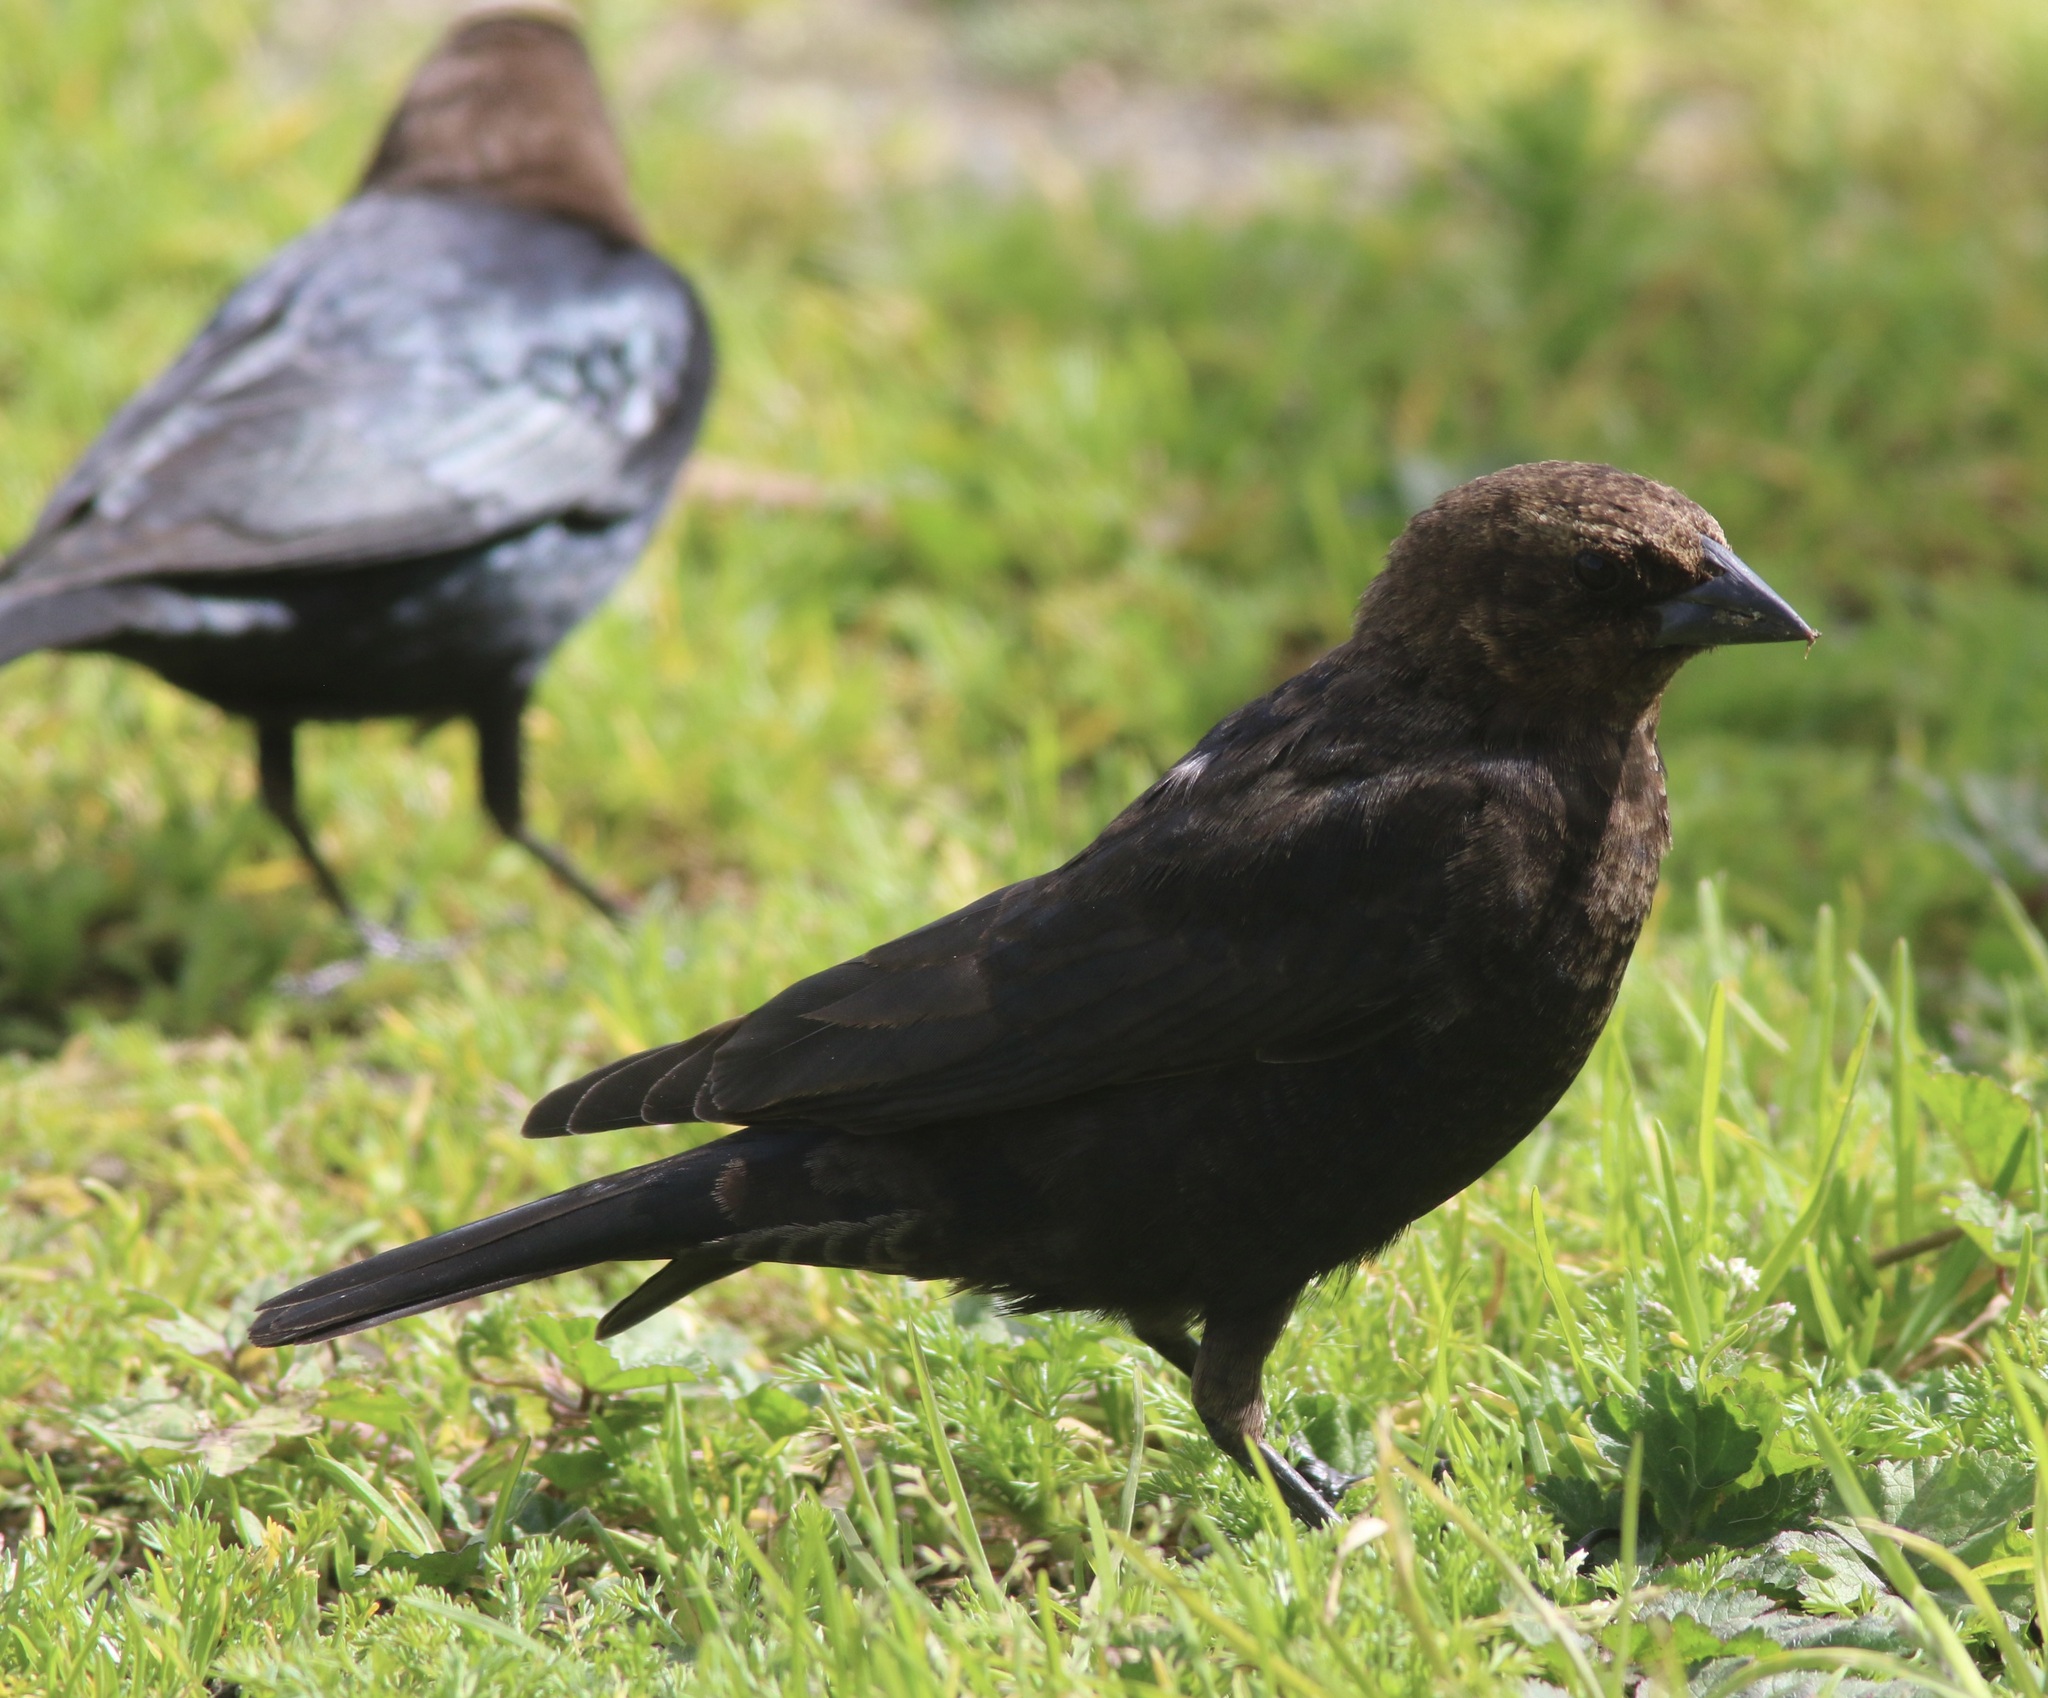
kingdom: Animalia
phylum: Chordata
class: Aves
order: Passeriformes
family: Icteridae
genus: Molothrus
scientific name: Molothrus ater
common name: Brown-headed cowbird
